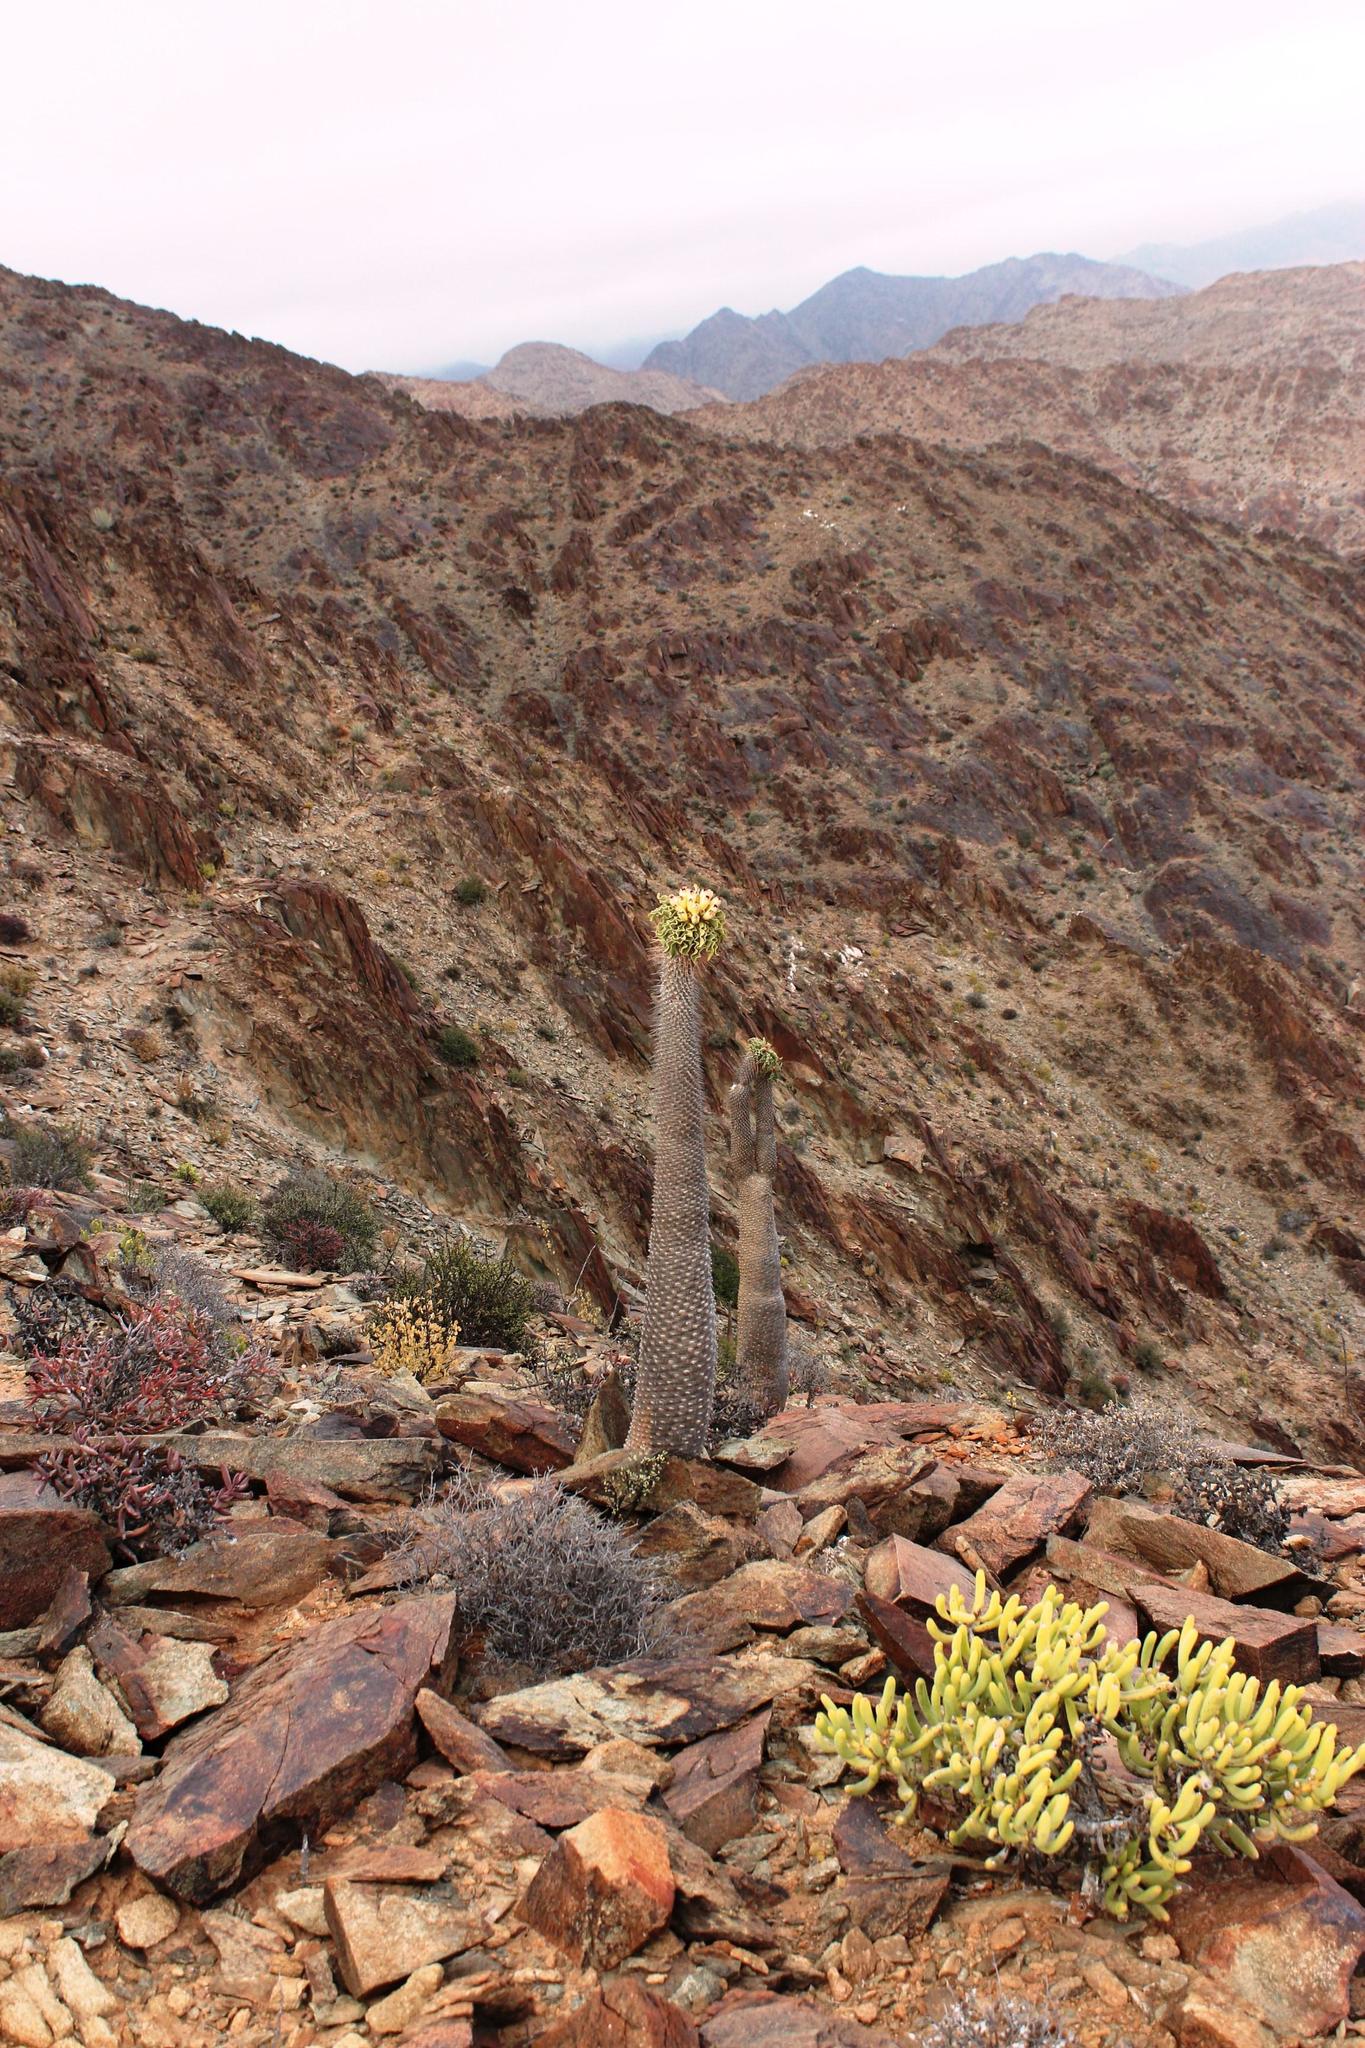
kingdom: Plantae
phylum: Tracheophyta
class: Magnoliopsida
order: Gentianales
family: Apocynaceae
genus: Pachypodium
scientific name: Pachypodium namaquanum
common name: Elephant's trunk
